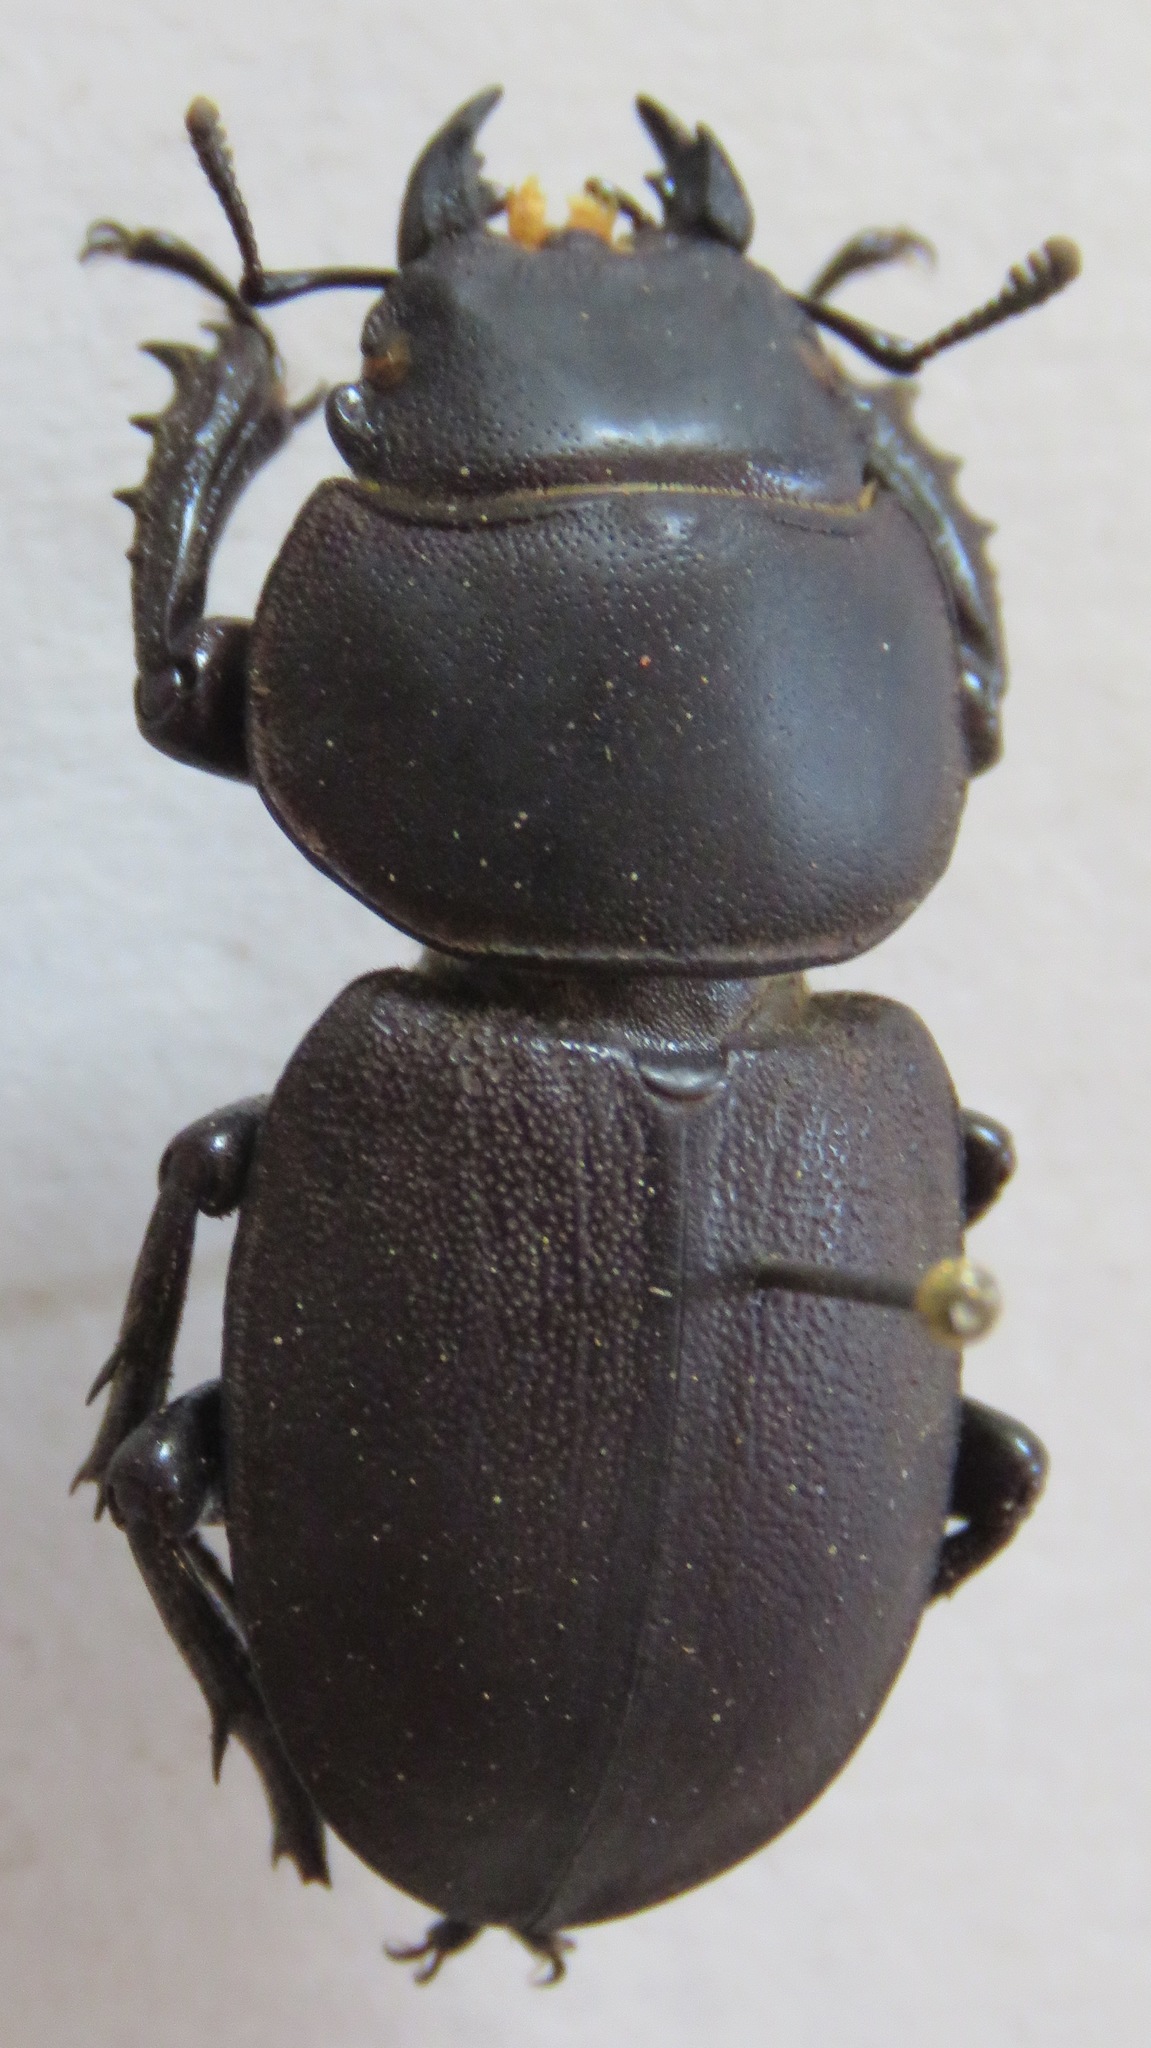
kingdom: Animalia
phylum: Arthropoda
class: Insecta
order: Coleoptera
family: Lucanidae
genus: Apterodorcus
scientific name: Apterodorcus bacchus
